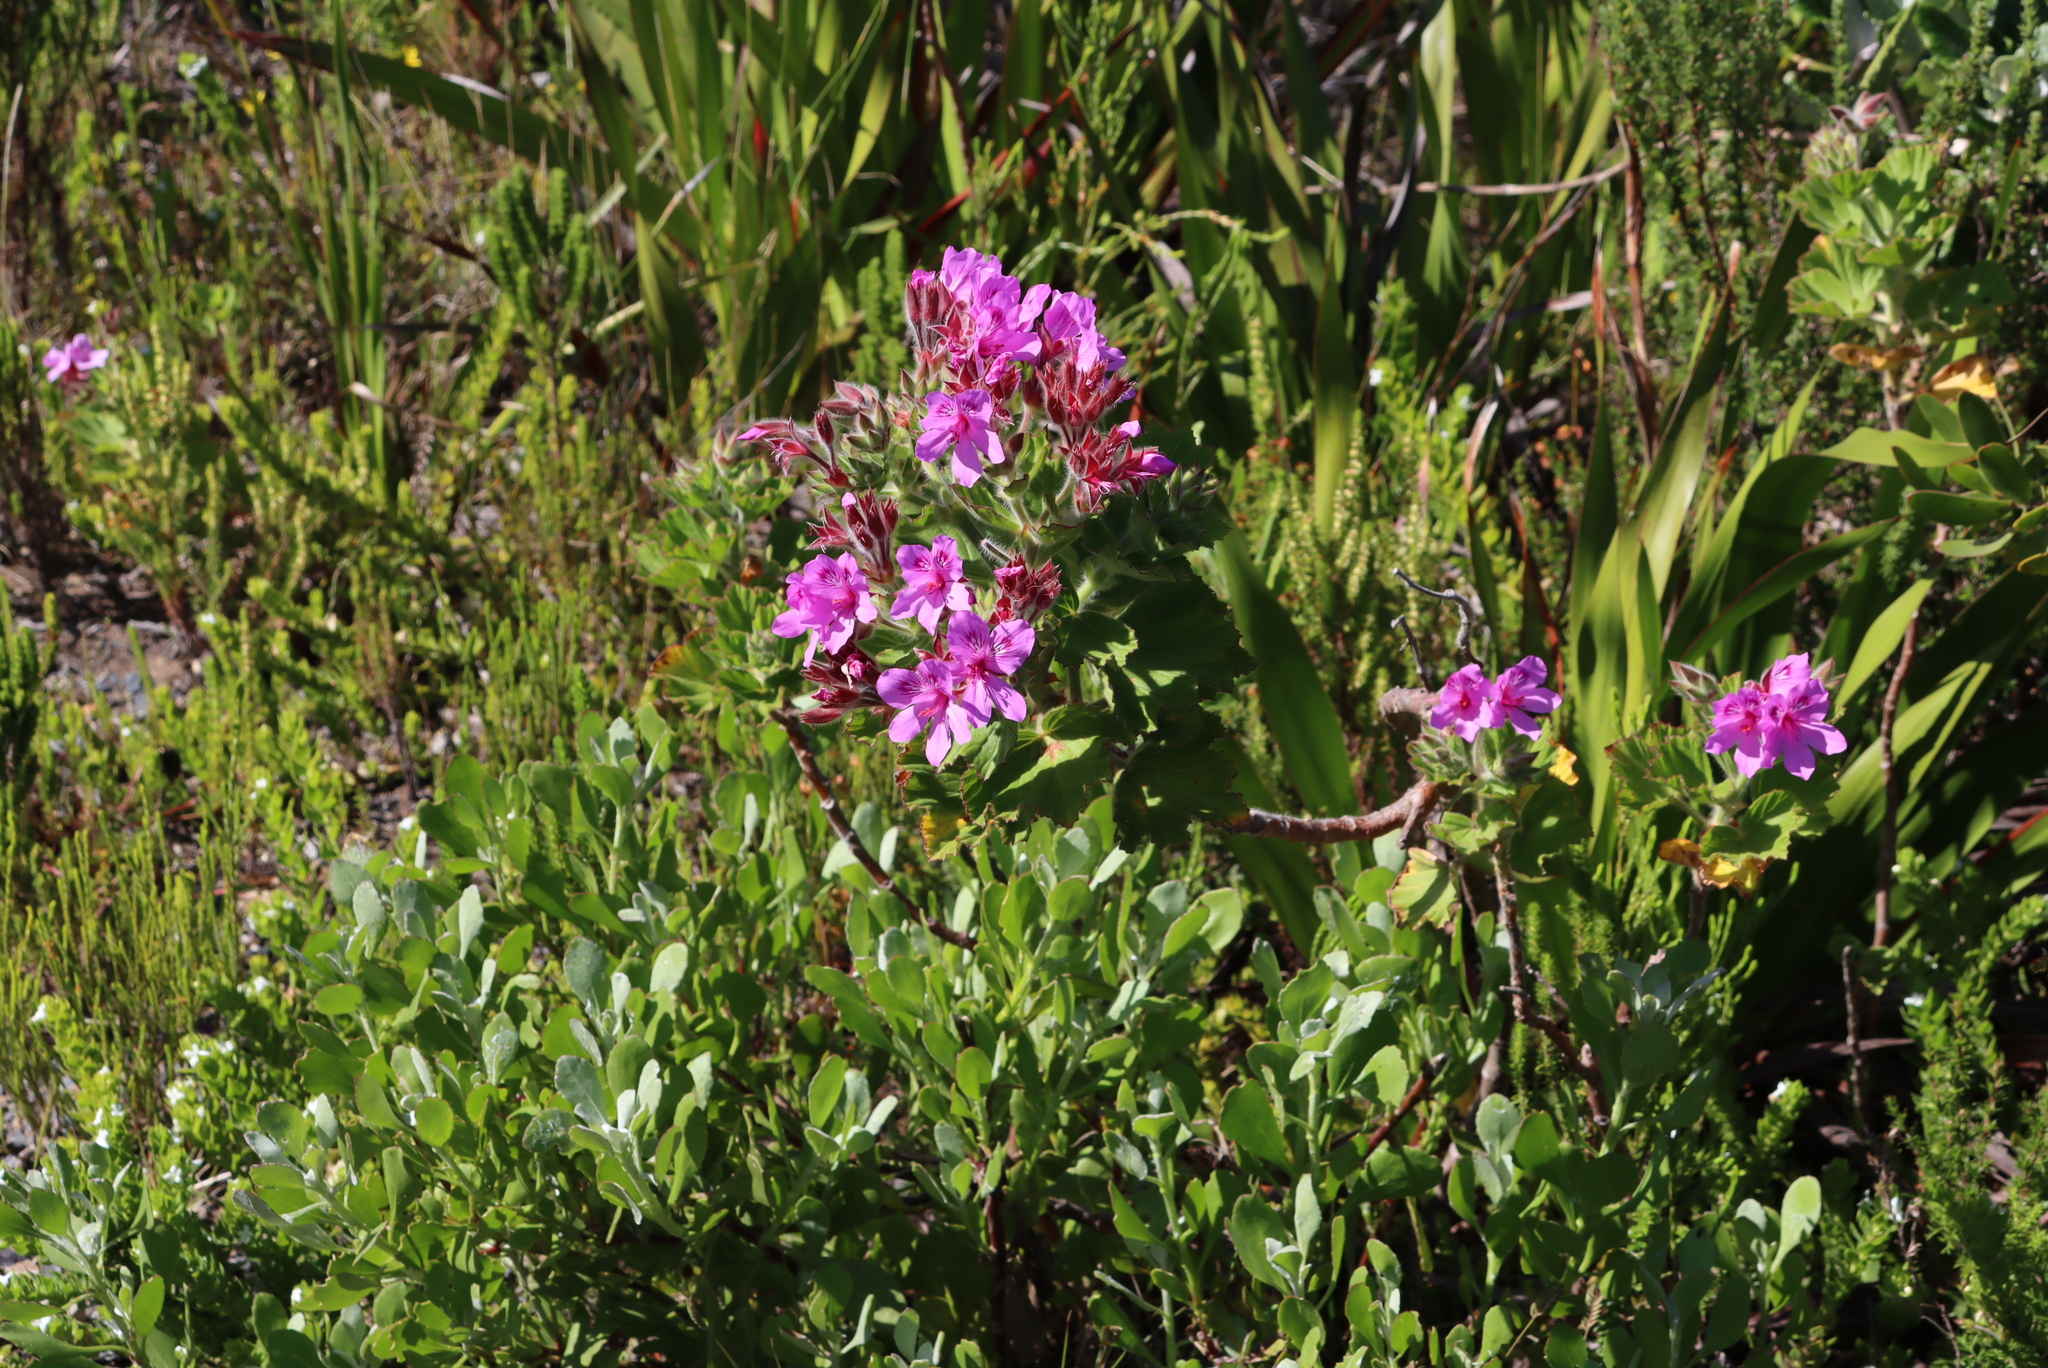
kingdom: Plantae
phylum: Tracheophyta
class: Magnoliopsida
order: Geraniales
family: Geraniaceae
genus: Pelargonium
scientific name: Pelargonium cucullatum
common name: Tree pelargonium
